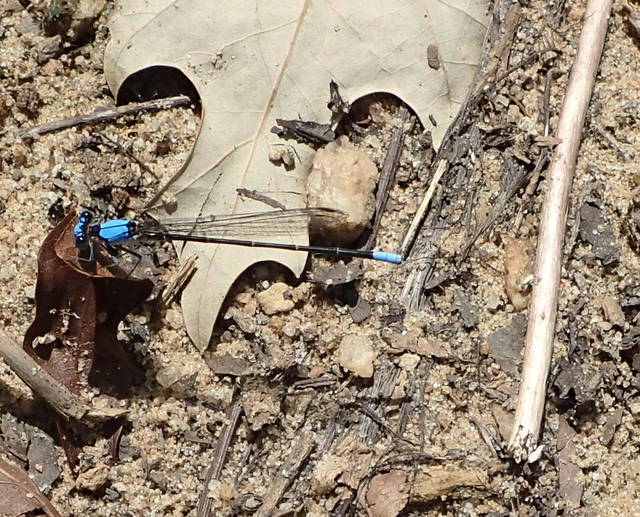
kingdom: Animalia
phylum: Arthropoda
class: Insecta
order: Odonata
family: Coenagrionidae
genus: Argia
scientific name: Argia apicalis
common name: Blue-fronted dancer
